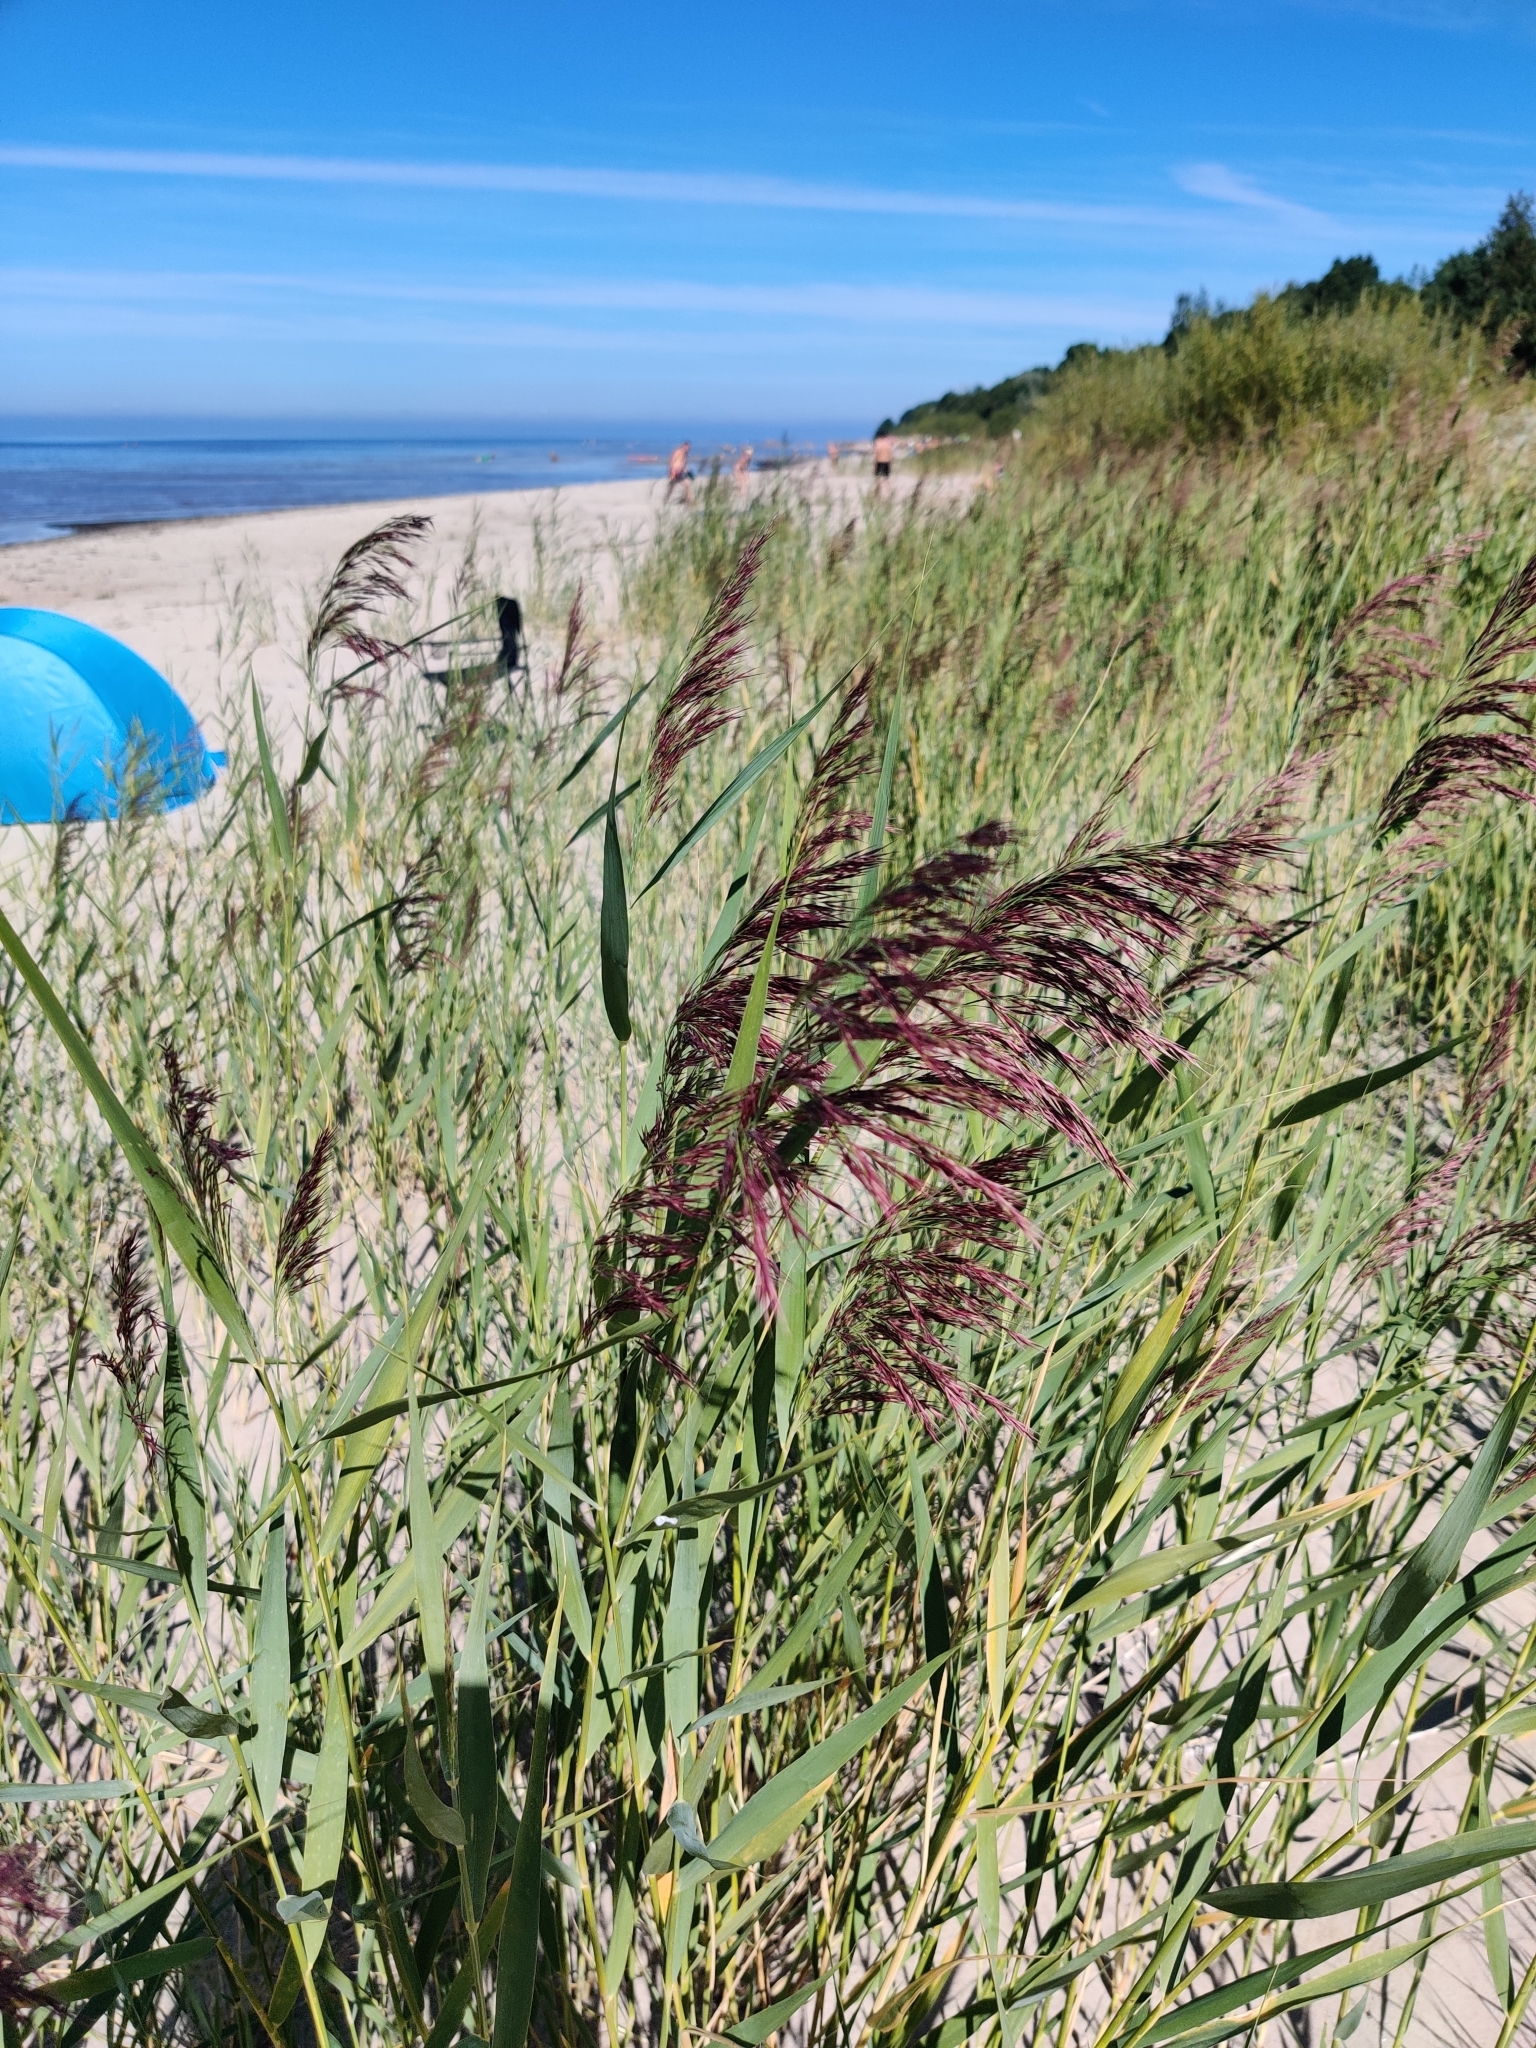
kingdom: Plantae
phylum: Tracheophyta
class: Liliopsida
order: Poales
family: Poaceae
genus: Phragmites
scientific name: Phragmites australis
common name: Common reed
